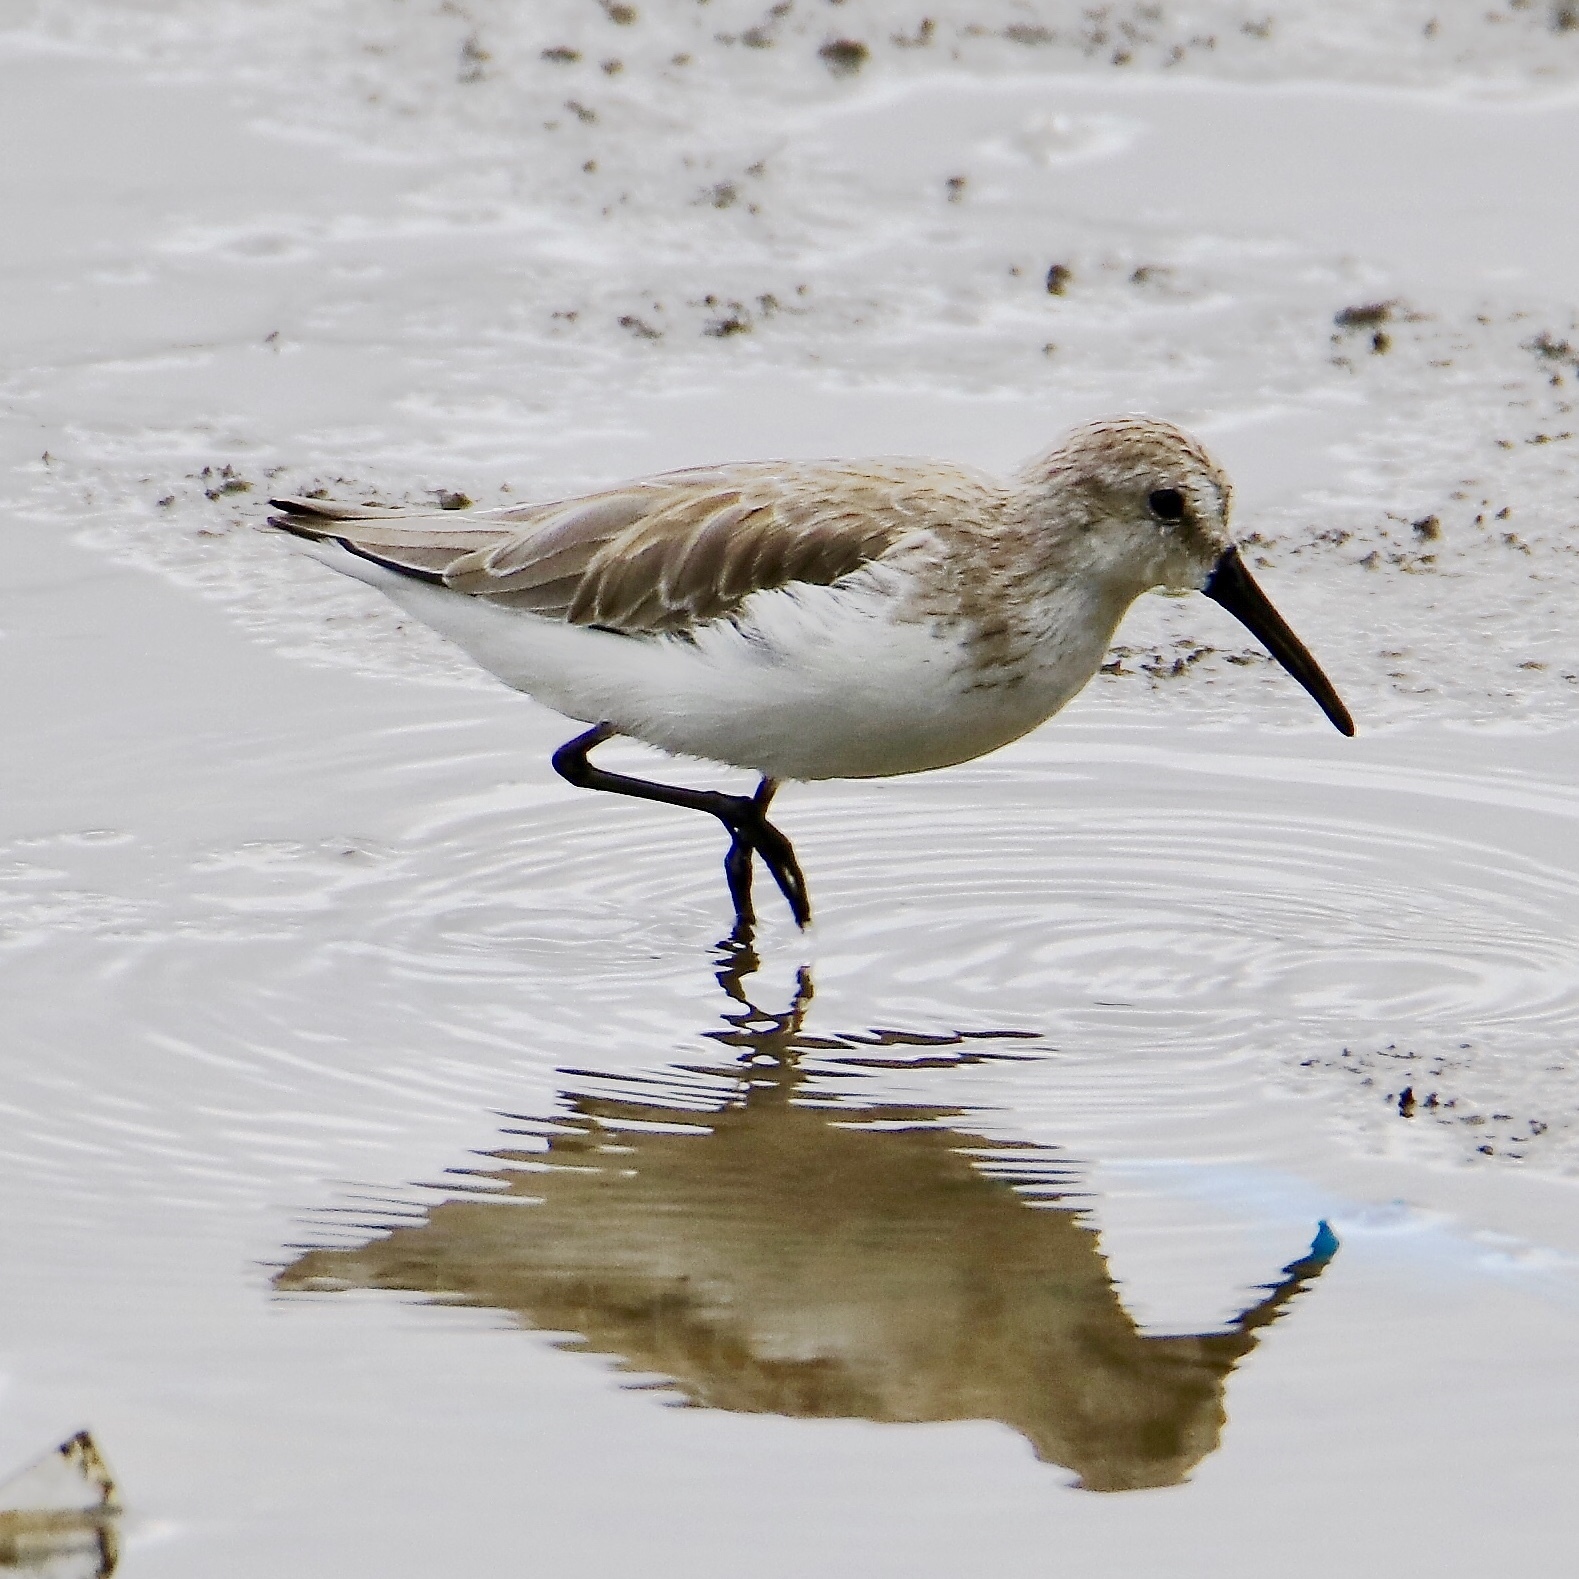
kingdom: Animalia
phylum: Chordata
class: Aves
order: Charadriiformes
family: Scolopacidae
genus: Calidris
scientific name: Calidris mauri
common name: Western sandpiper
